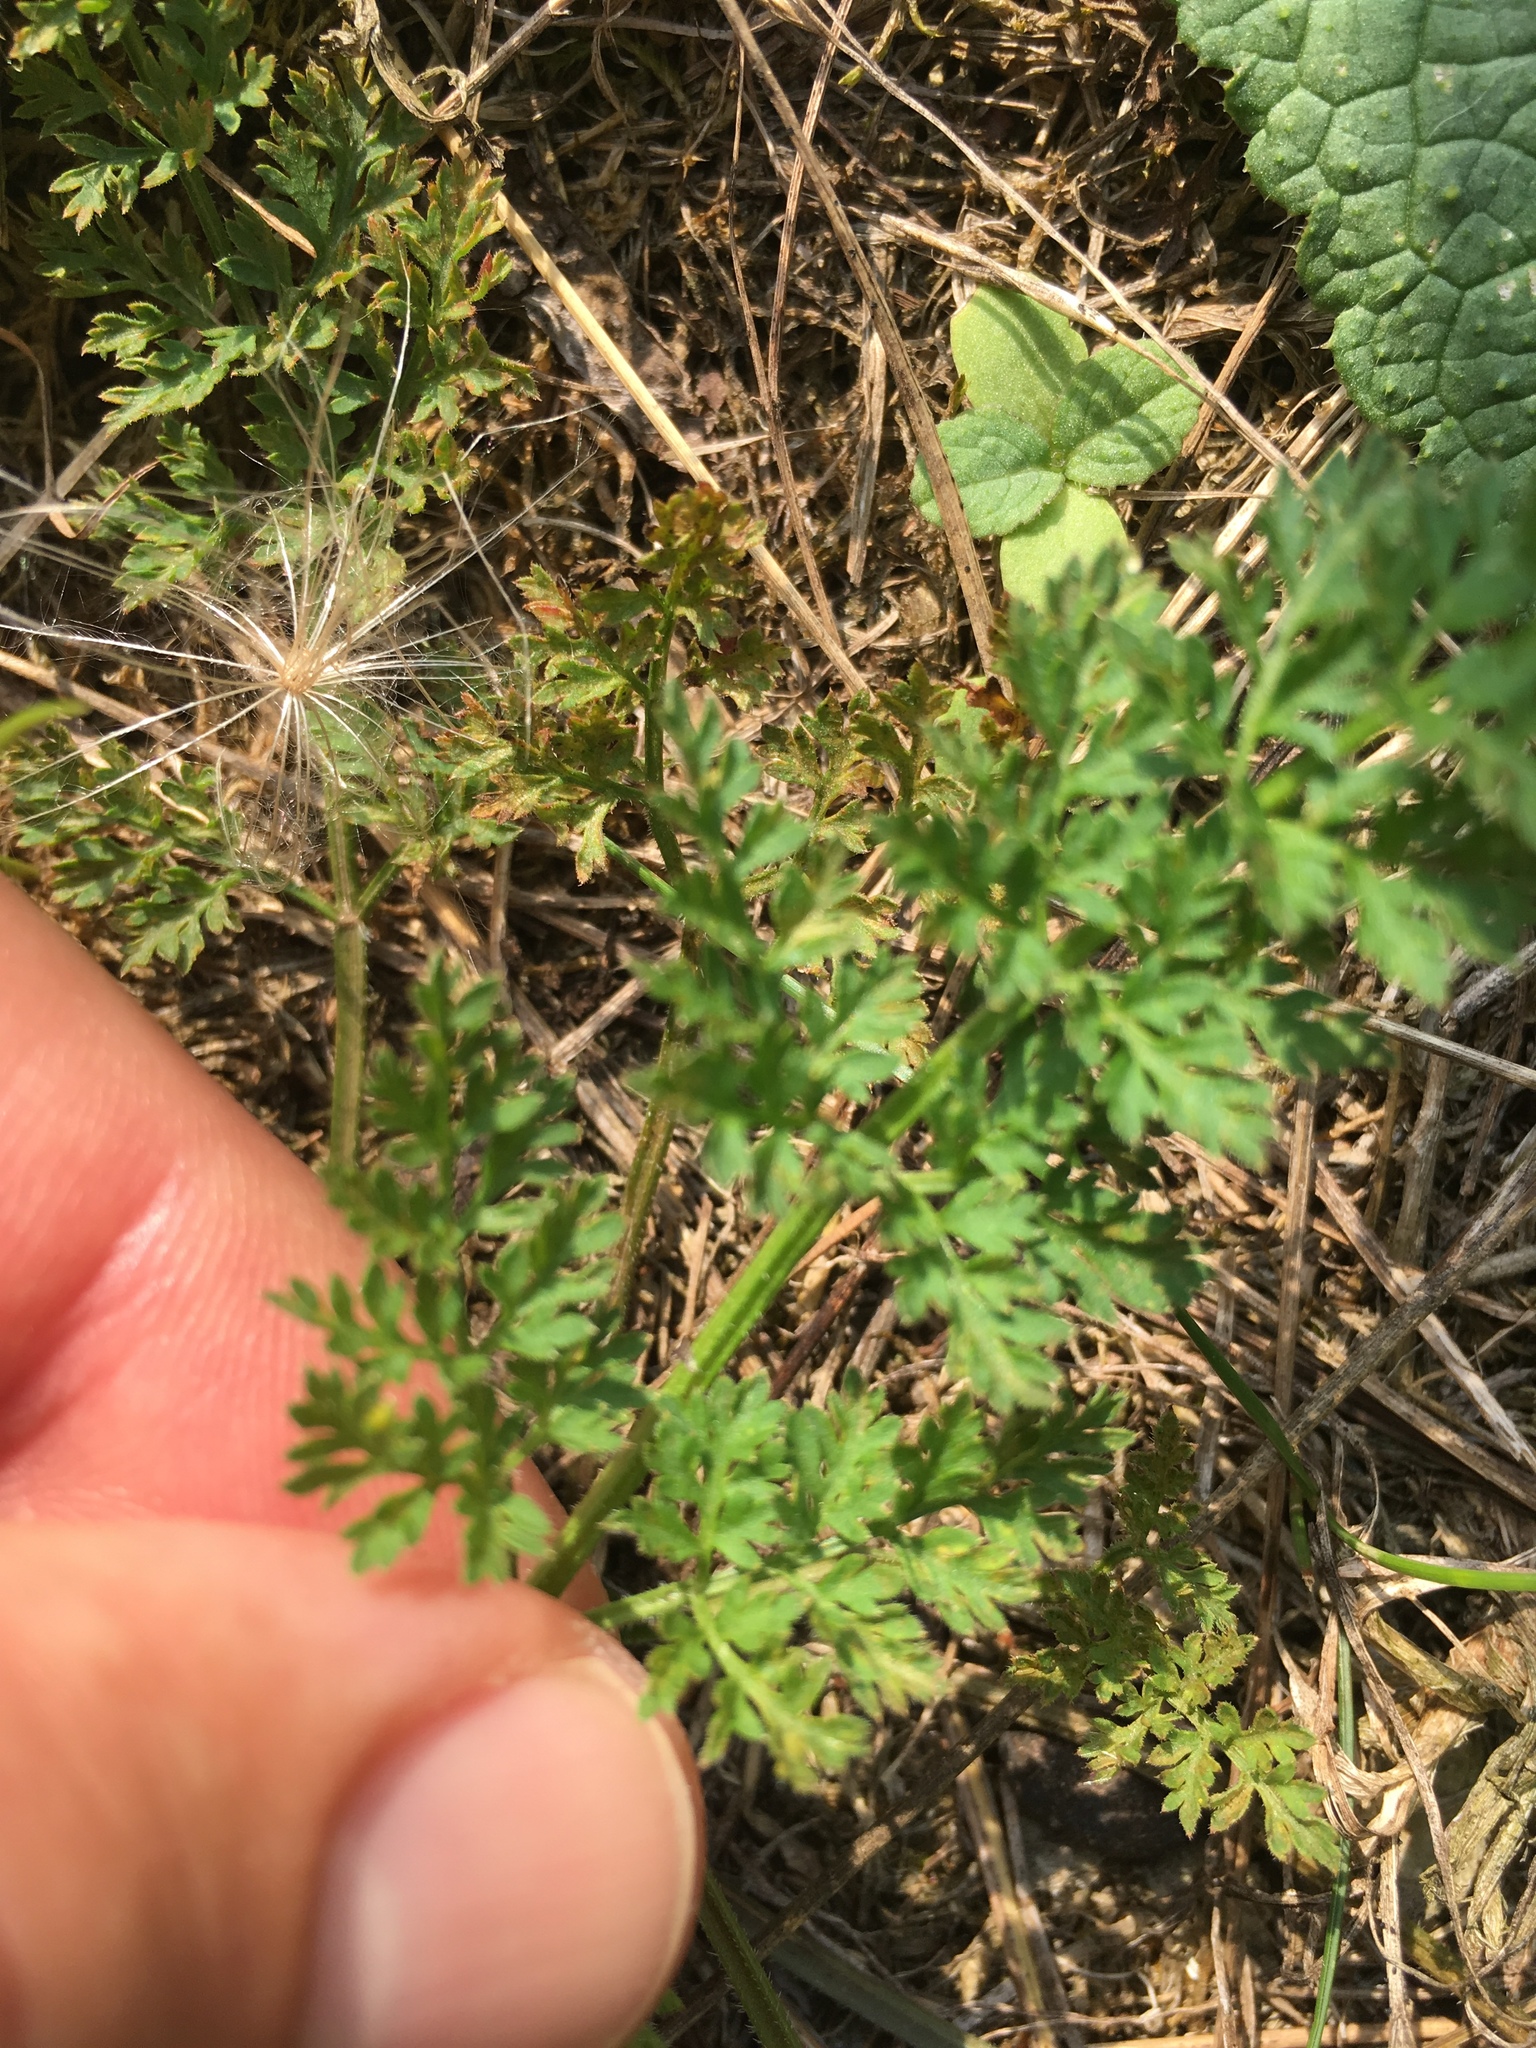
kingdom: Plantae
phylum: Tracheophyta
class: Magnoliopsida
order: Apiales
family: Apiaceae
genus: Daucus
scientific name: Daucus carota
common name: Wild carrot
